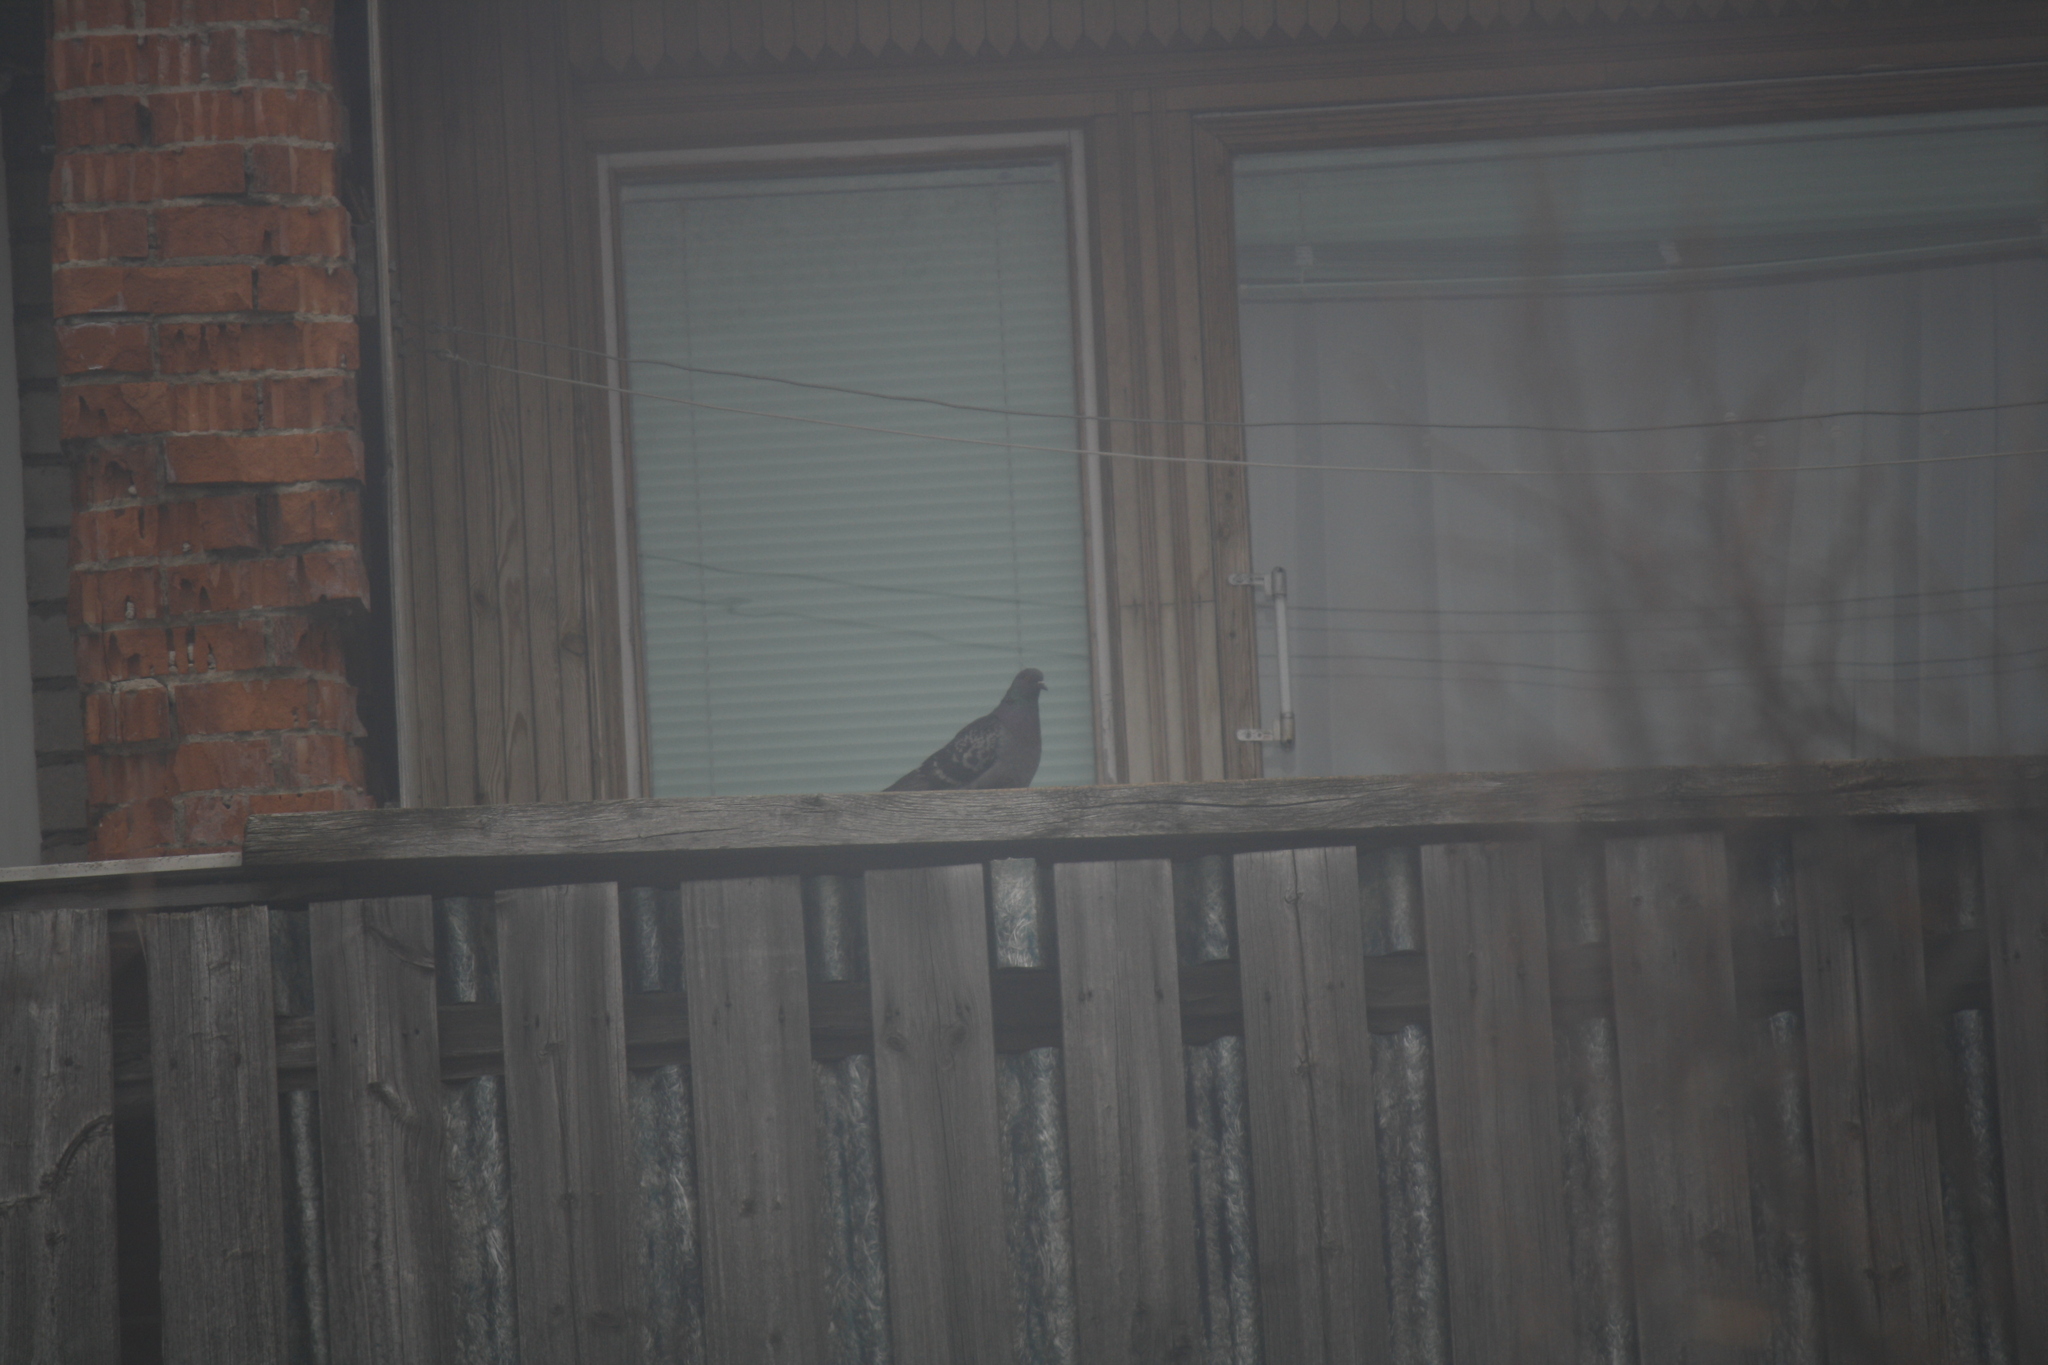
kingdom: Animalia
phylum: Chordata
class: Aves
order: Columbiformes
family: Columbidae
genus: Columba
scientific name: Columba livia
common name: Rock pigeon
